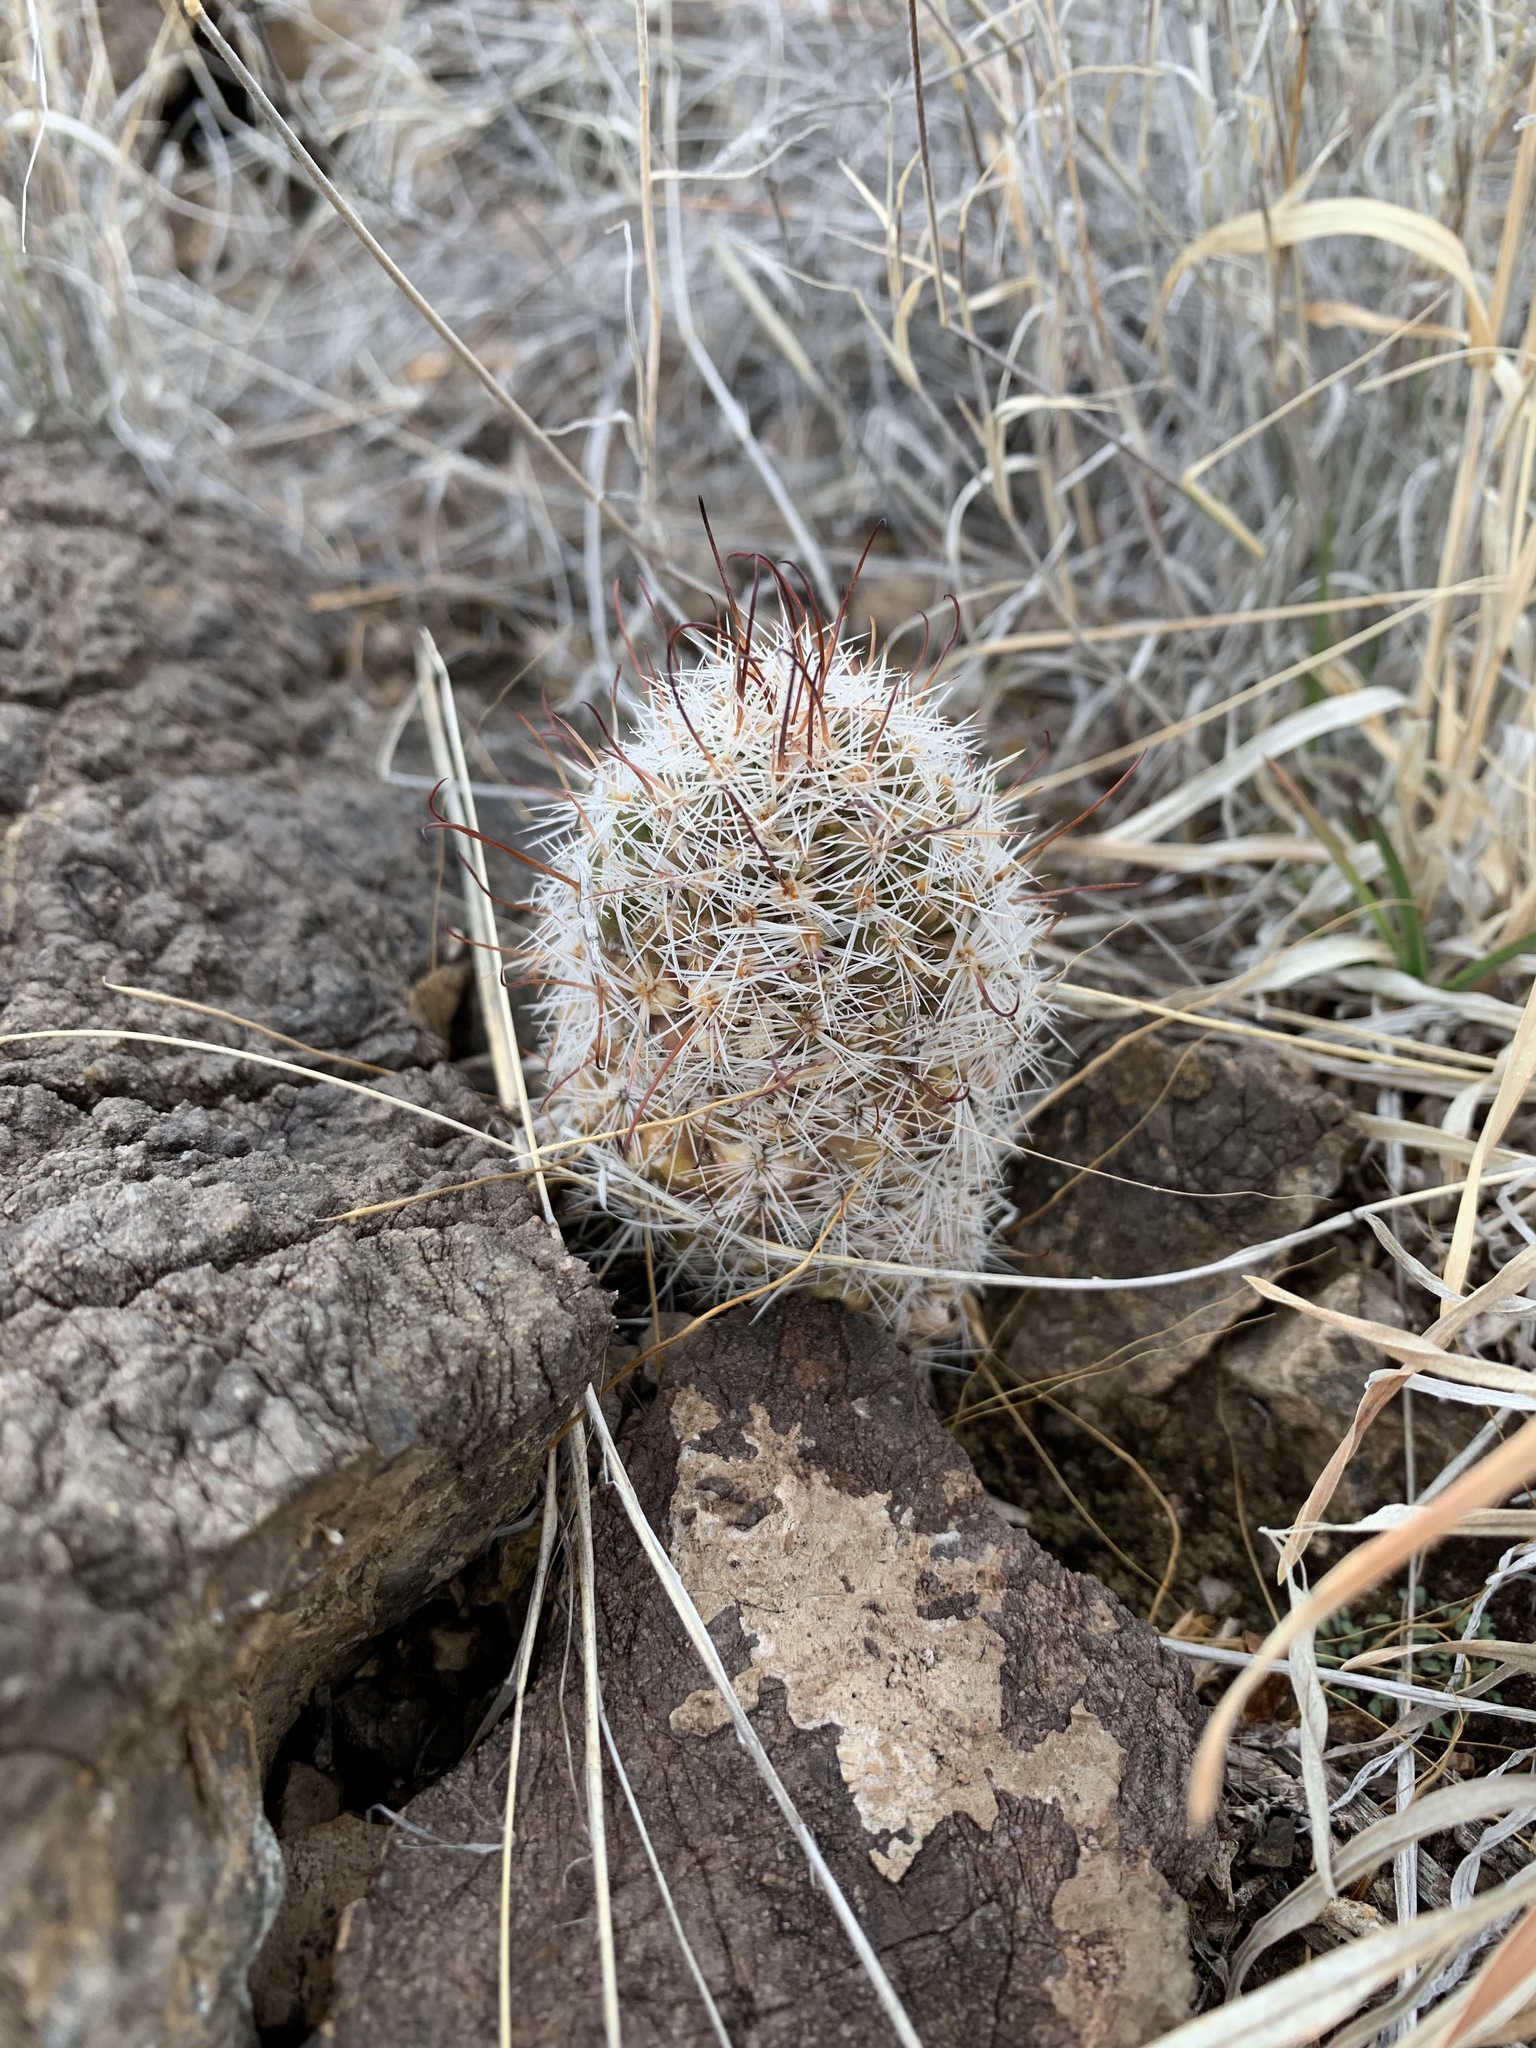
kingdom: Plantae
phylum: Tracheophyta
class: Magnoliopsida
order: Caryophyllales
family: Cactaceae
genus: Cochemiea
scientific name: Cochemiea grahamii
